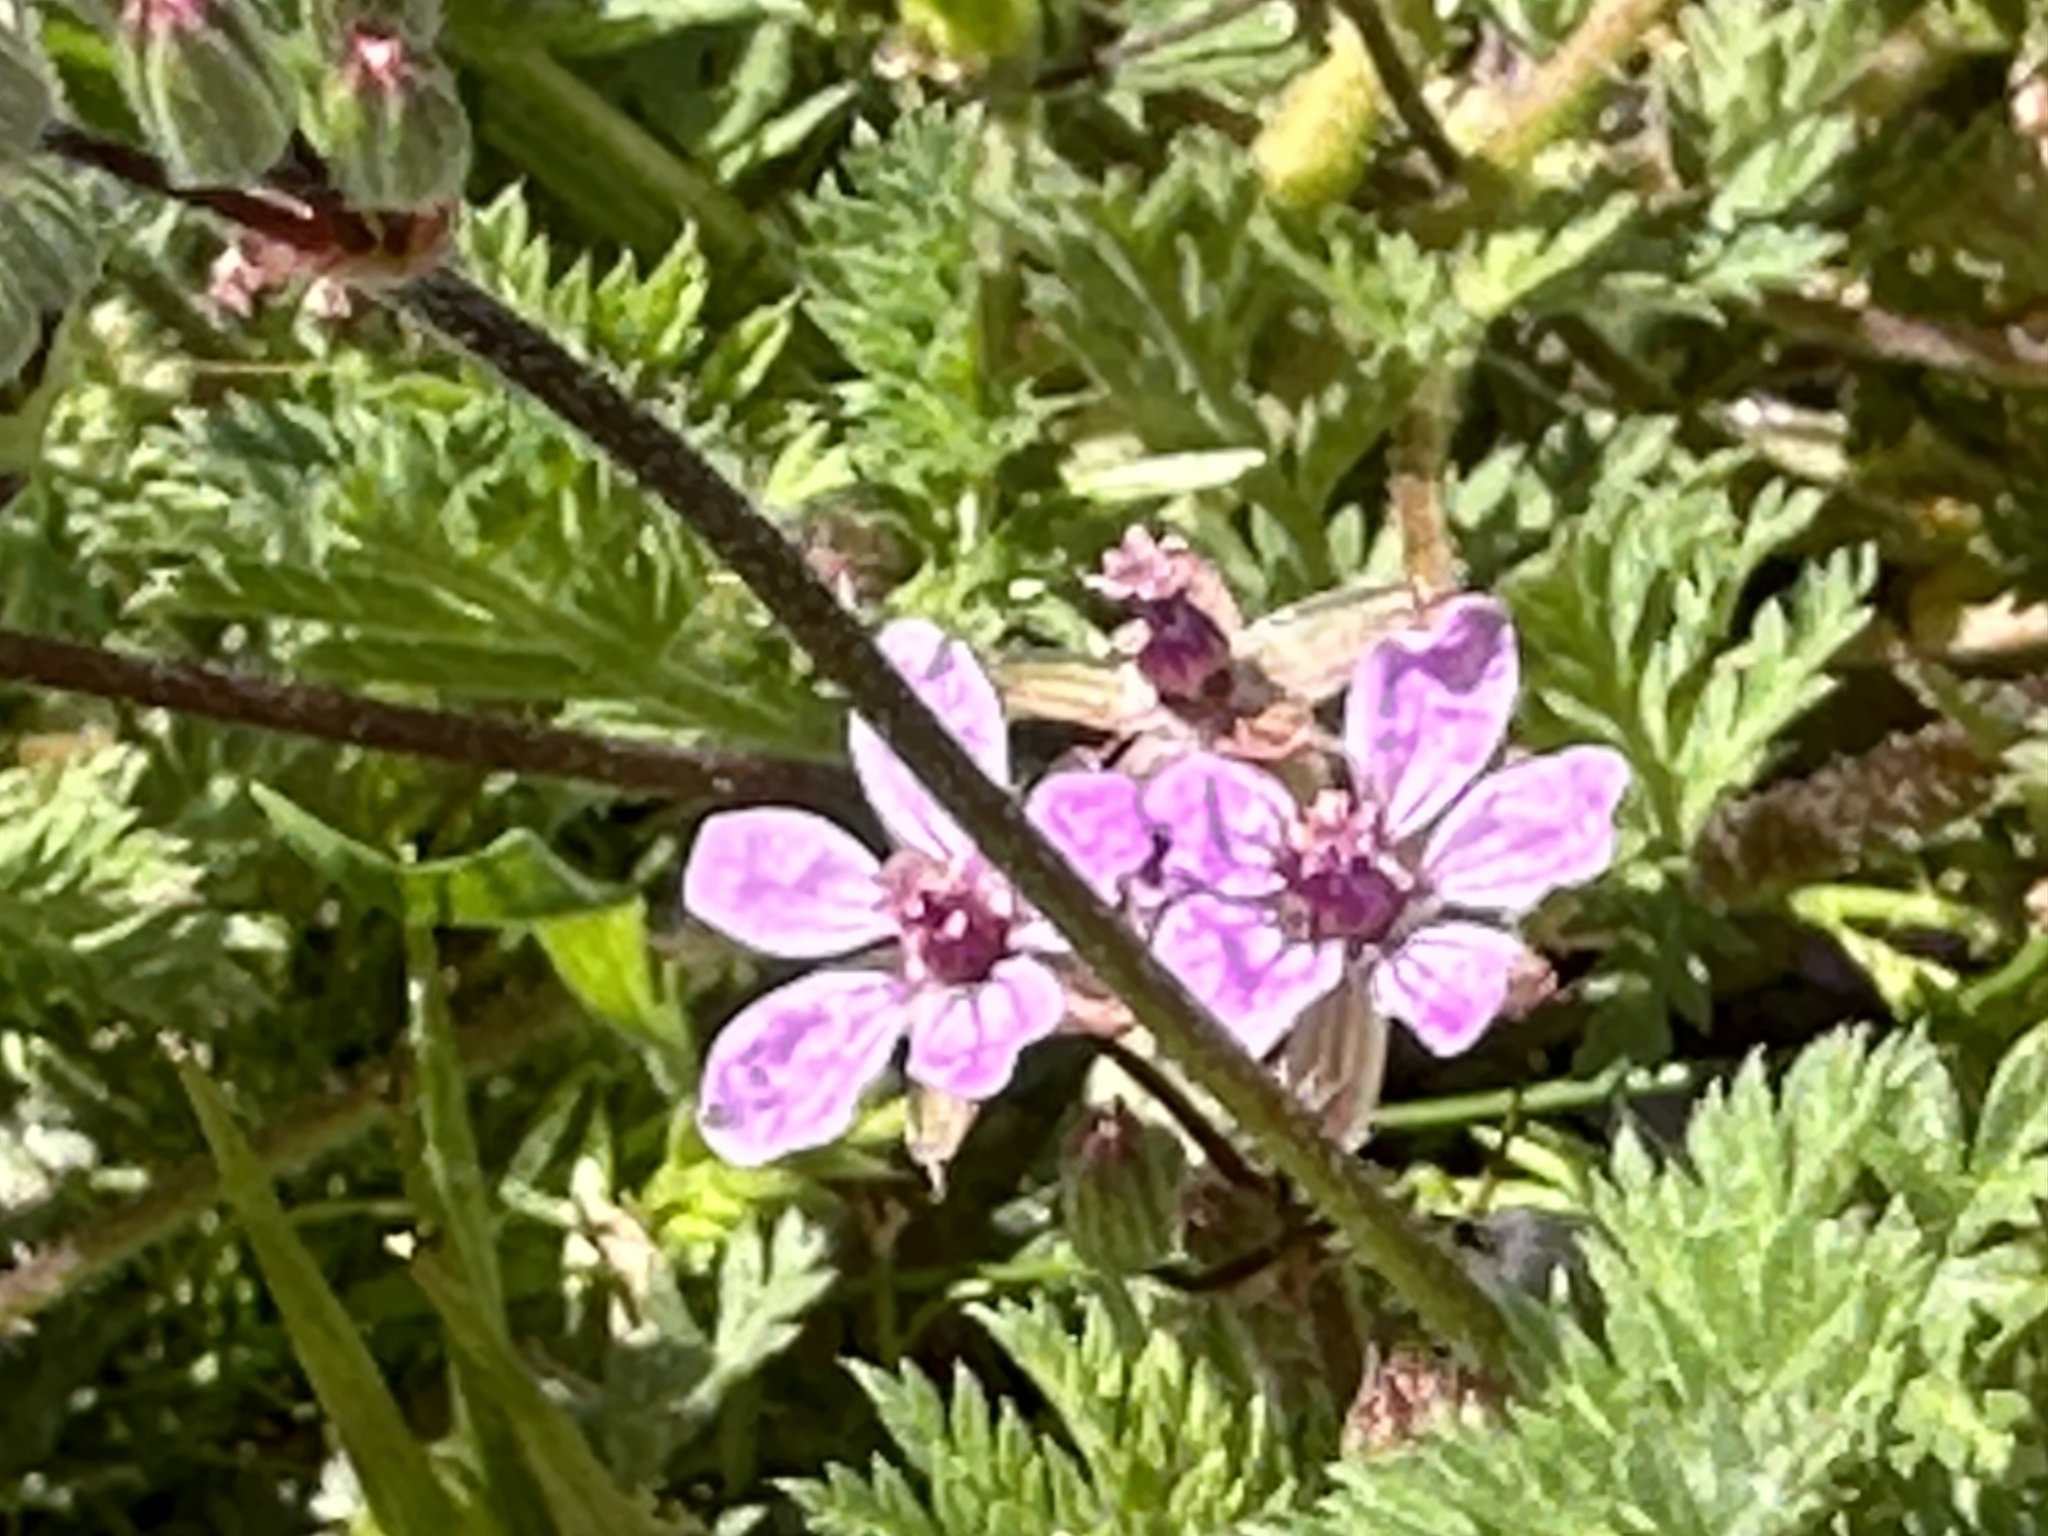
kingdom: Plantae
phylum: Tracheophyta
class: Magnoliopsida
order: Geraniales
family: Geraniaceae
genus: Erodium
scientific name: Erodium cicutarium
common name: Common stork's-bill
